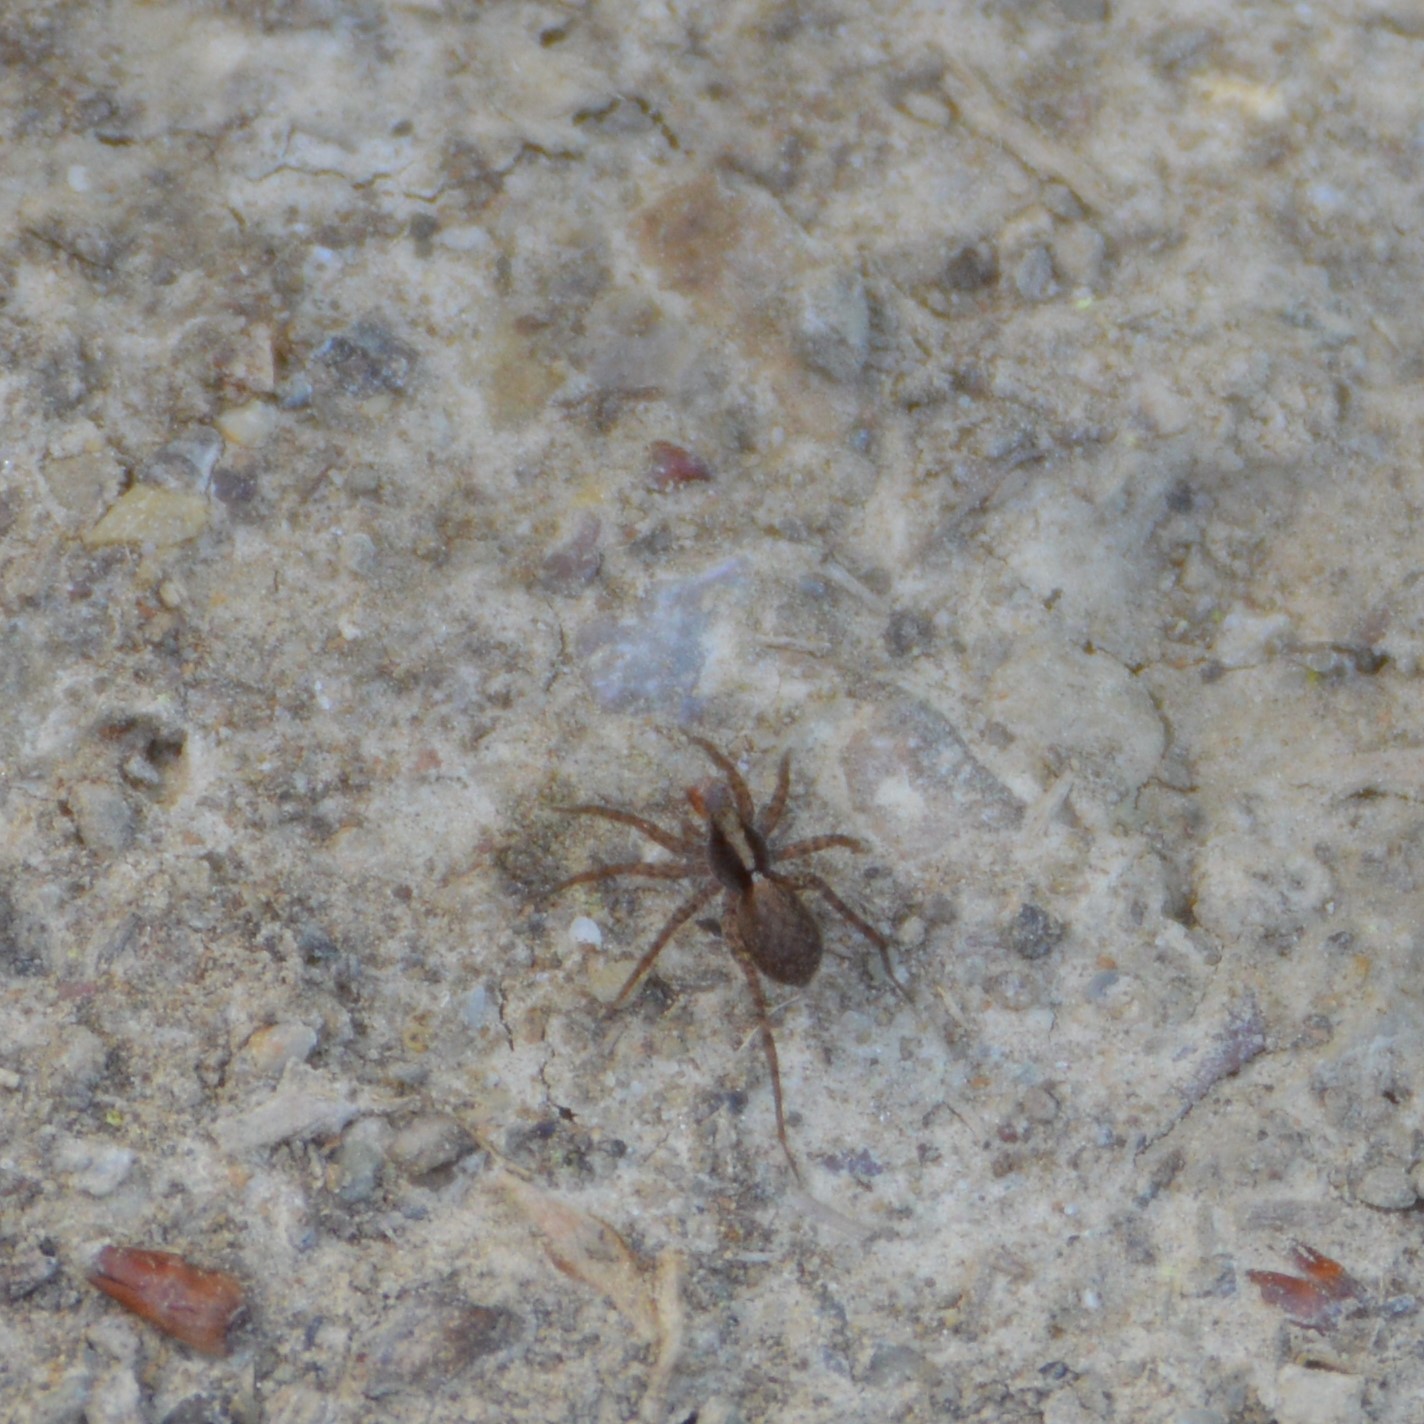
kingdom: Animalia
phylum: Arthropoda
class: Arachnida
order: Araneae
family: Lycosidae
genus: Pardosa
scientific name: Pardosa
